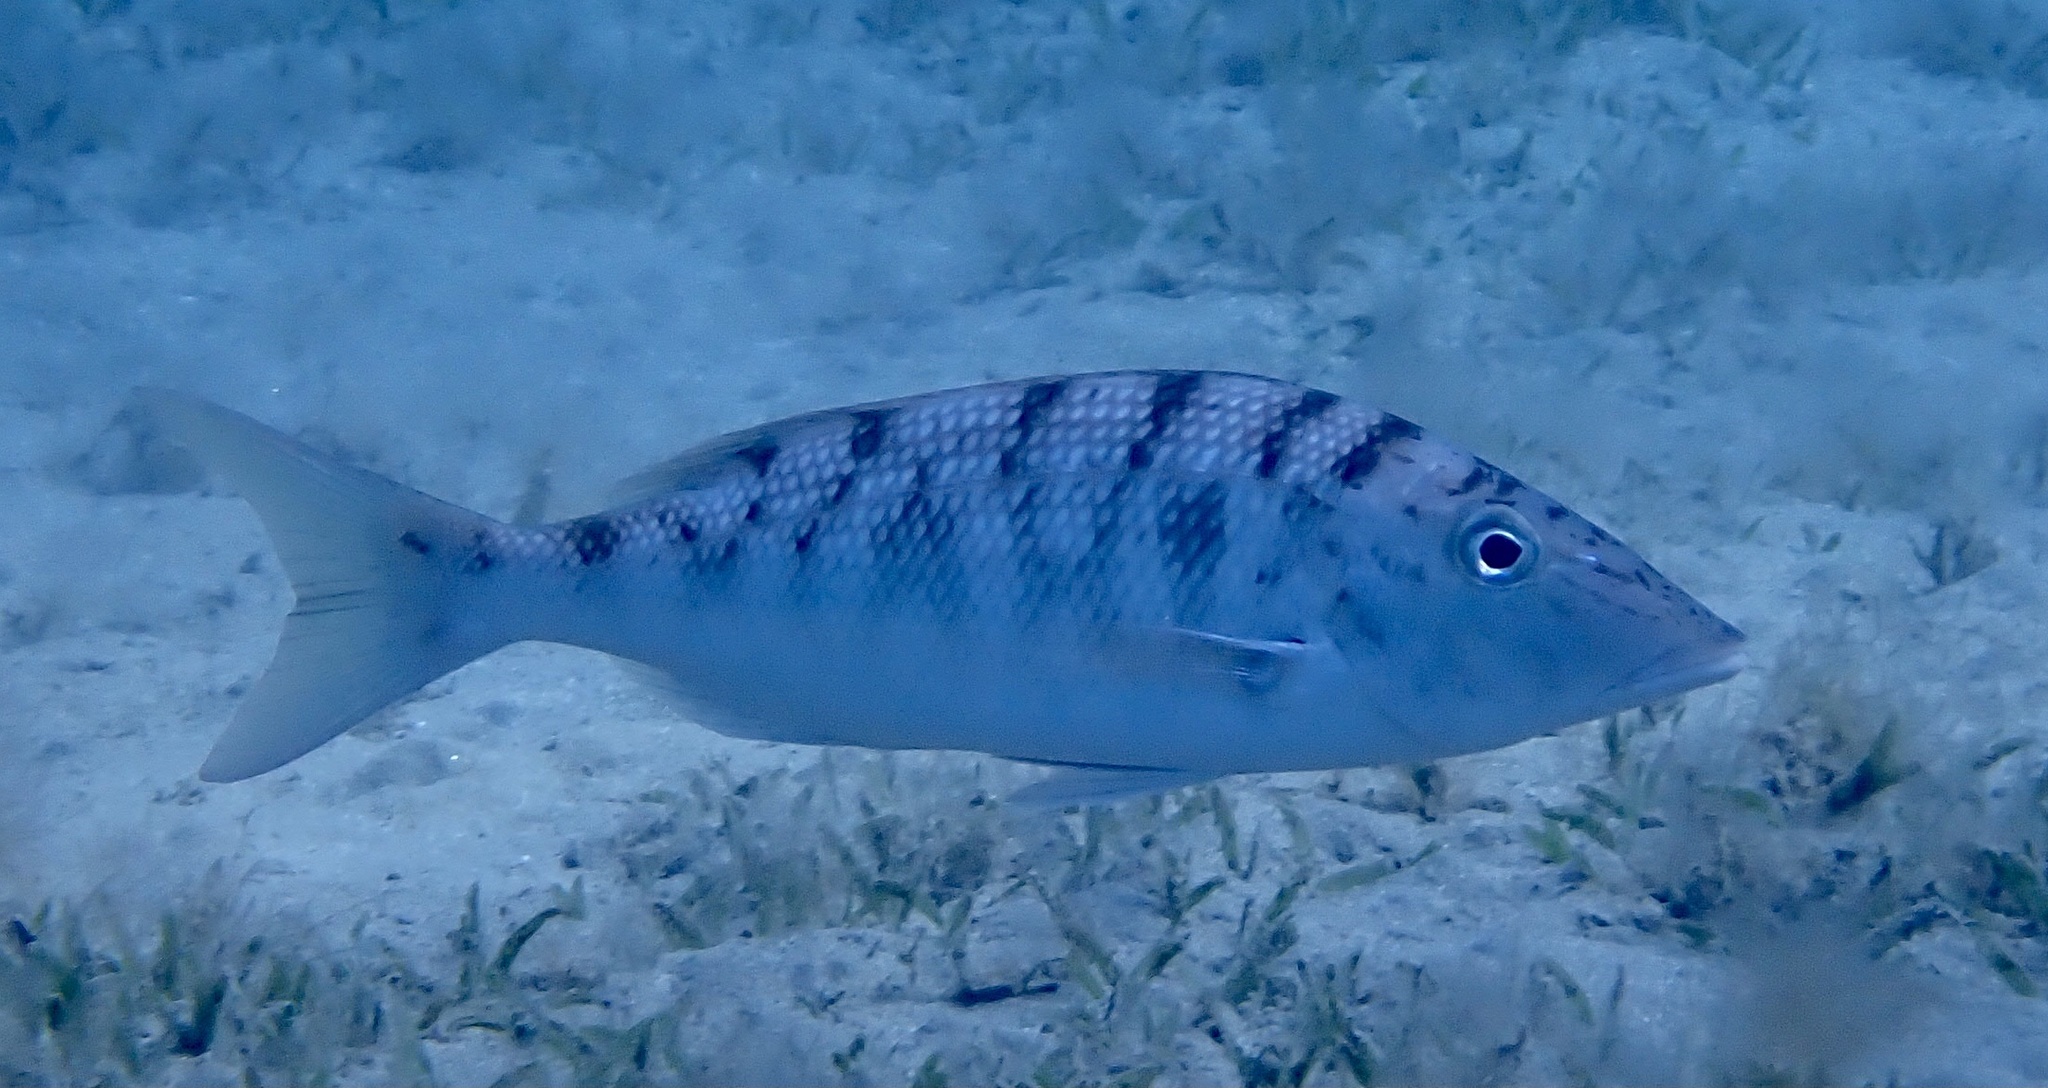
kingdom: Animalia
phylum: Chordata
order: Perciformes
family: Lethrinidae
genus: Lethrinus
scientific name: Lethrinus mahsena
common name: Sky emperor
